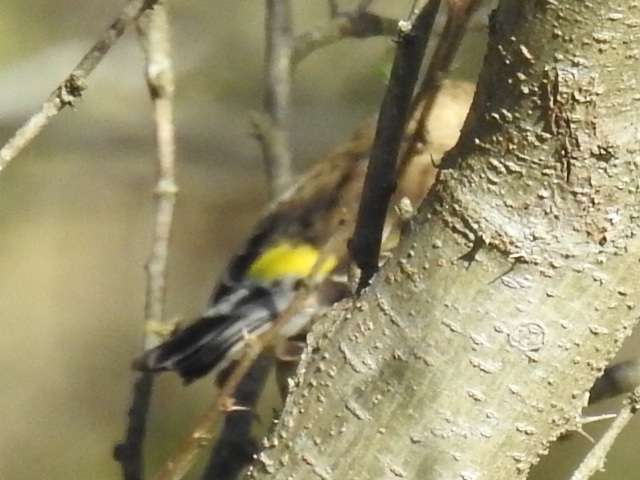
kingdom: Animalia
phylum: Chordata
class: Aves
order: Passeriformes
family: Parulidae
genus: Setophaga
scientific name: Setophaga coronata
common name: Myrtle warbler
